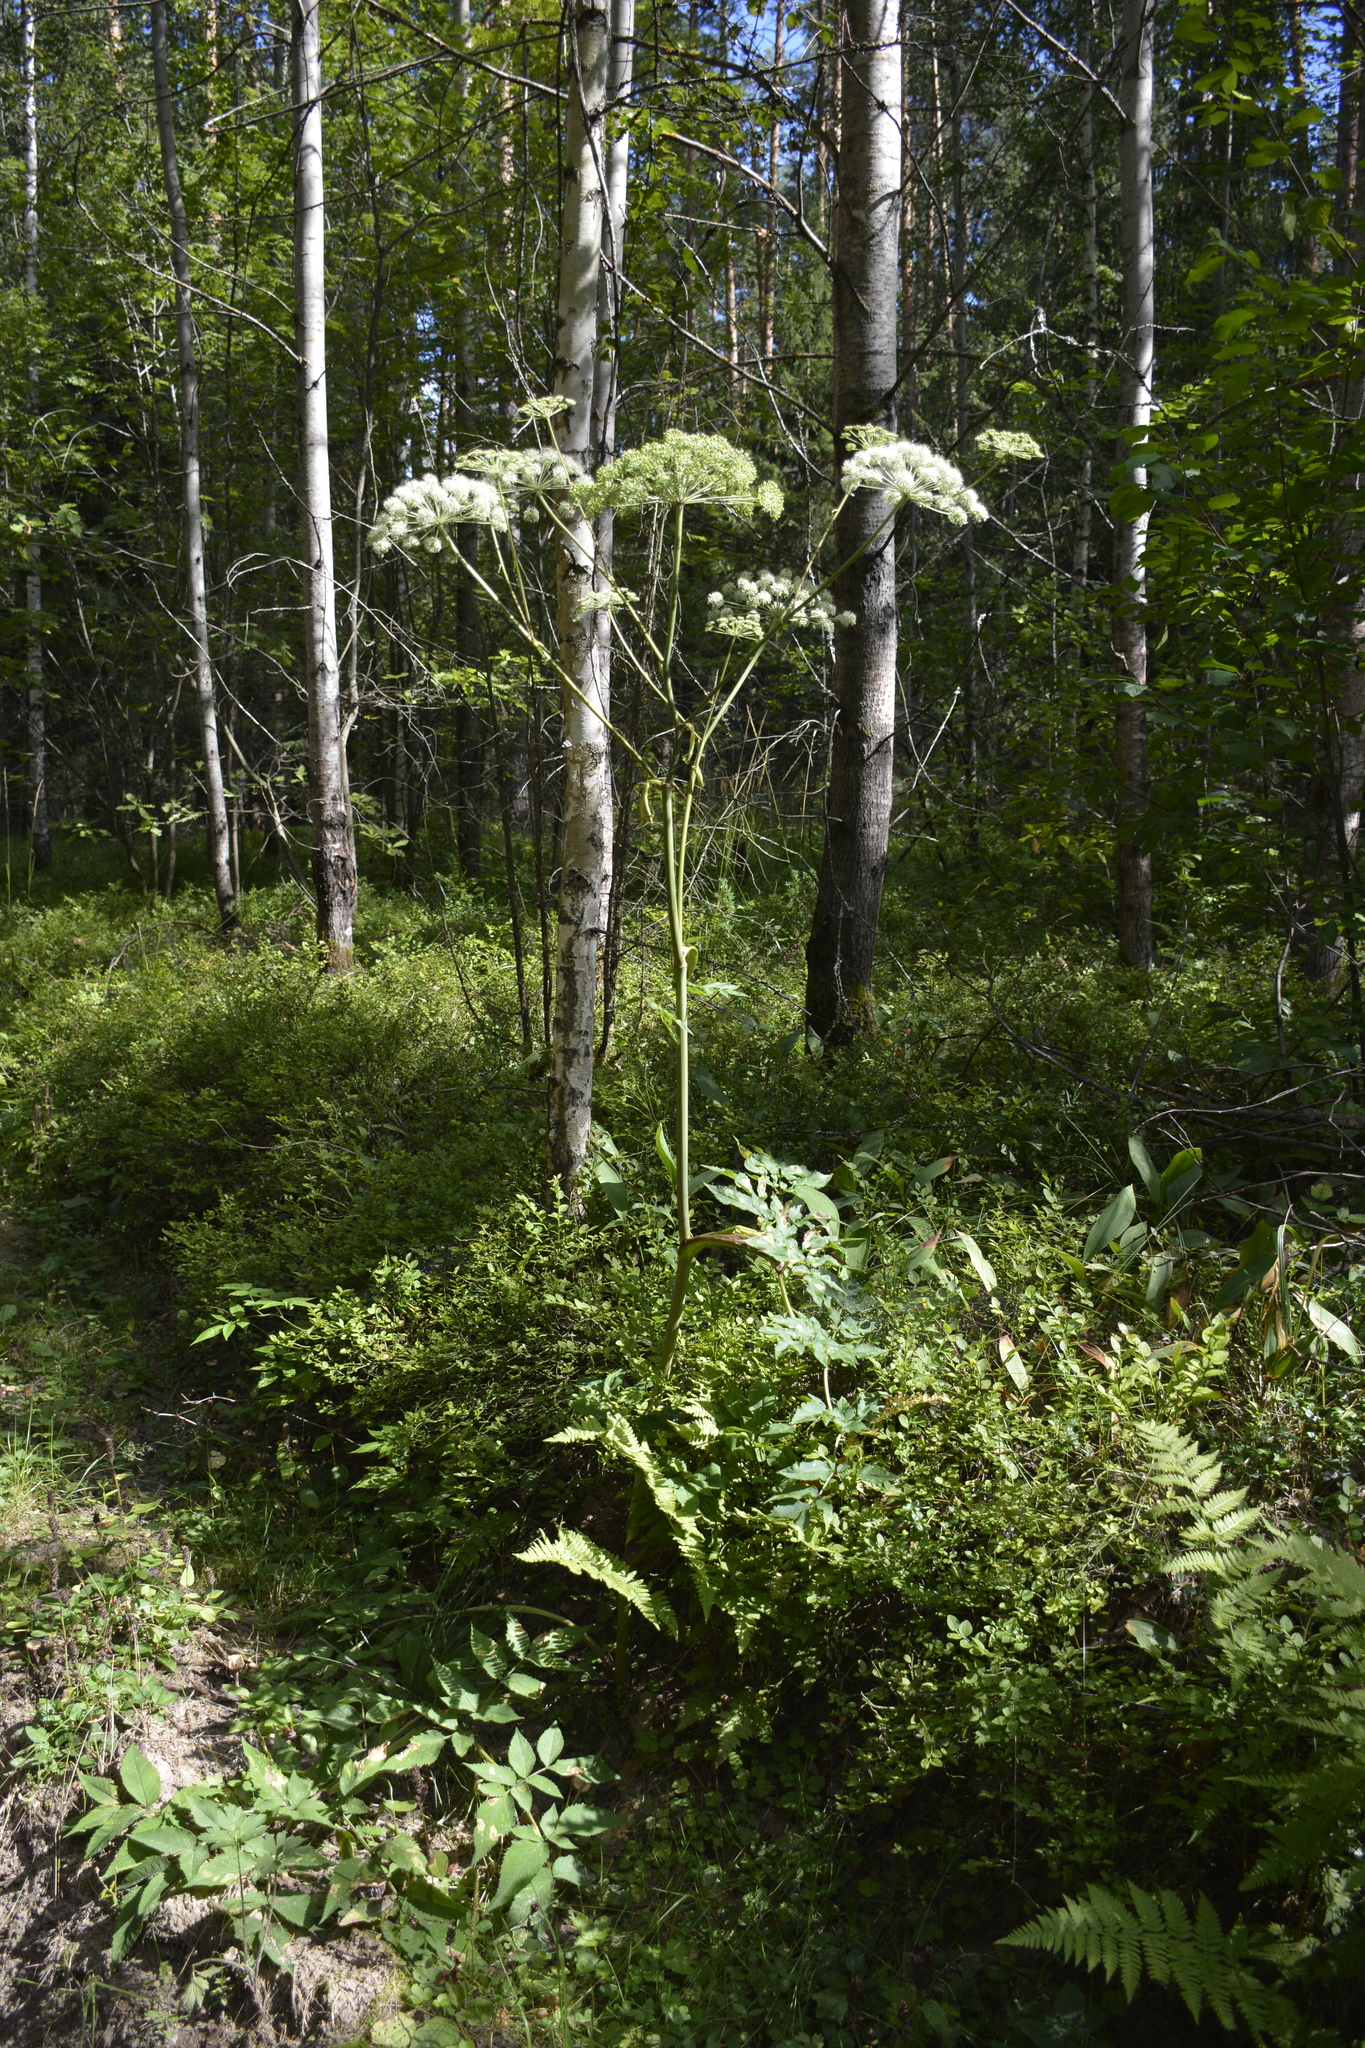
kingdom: Plantae
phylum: Tracheophyta
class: Magnoliopsida
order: Apiales
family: Apiaceae
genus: Angelica
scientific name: Angelica sylvestris
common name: Wild angelica
